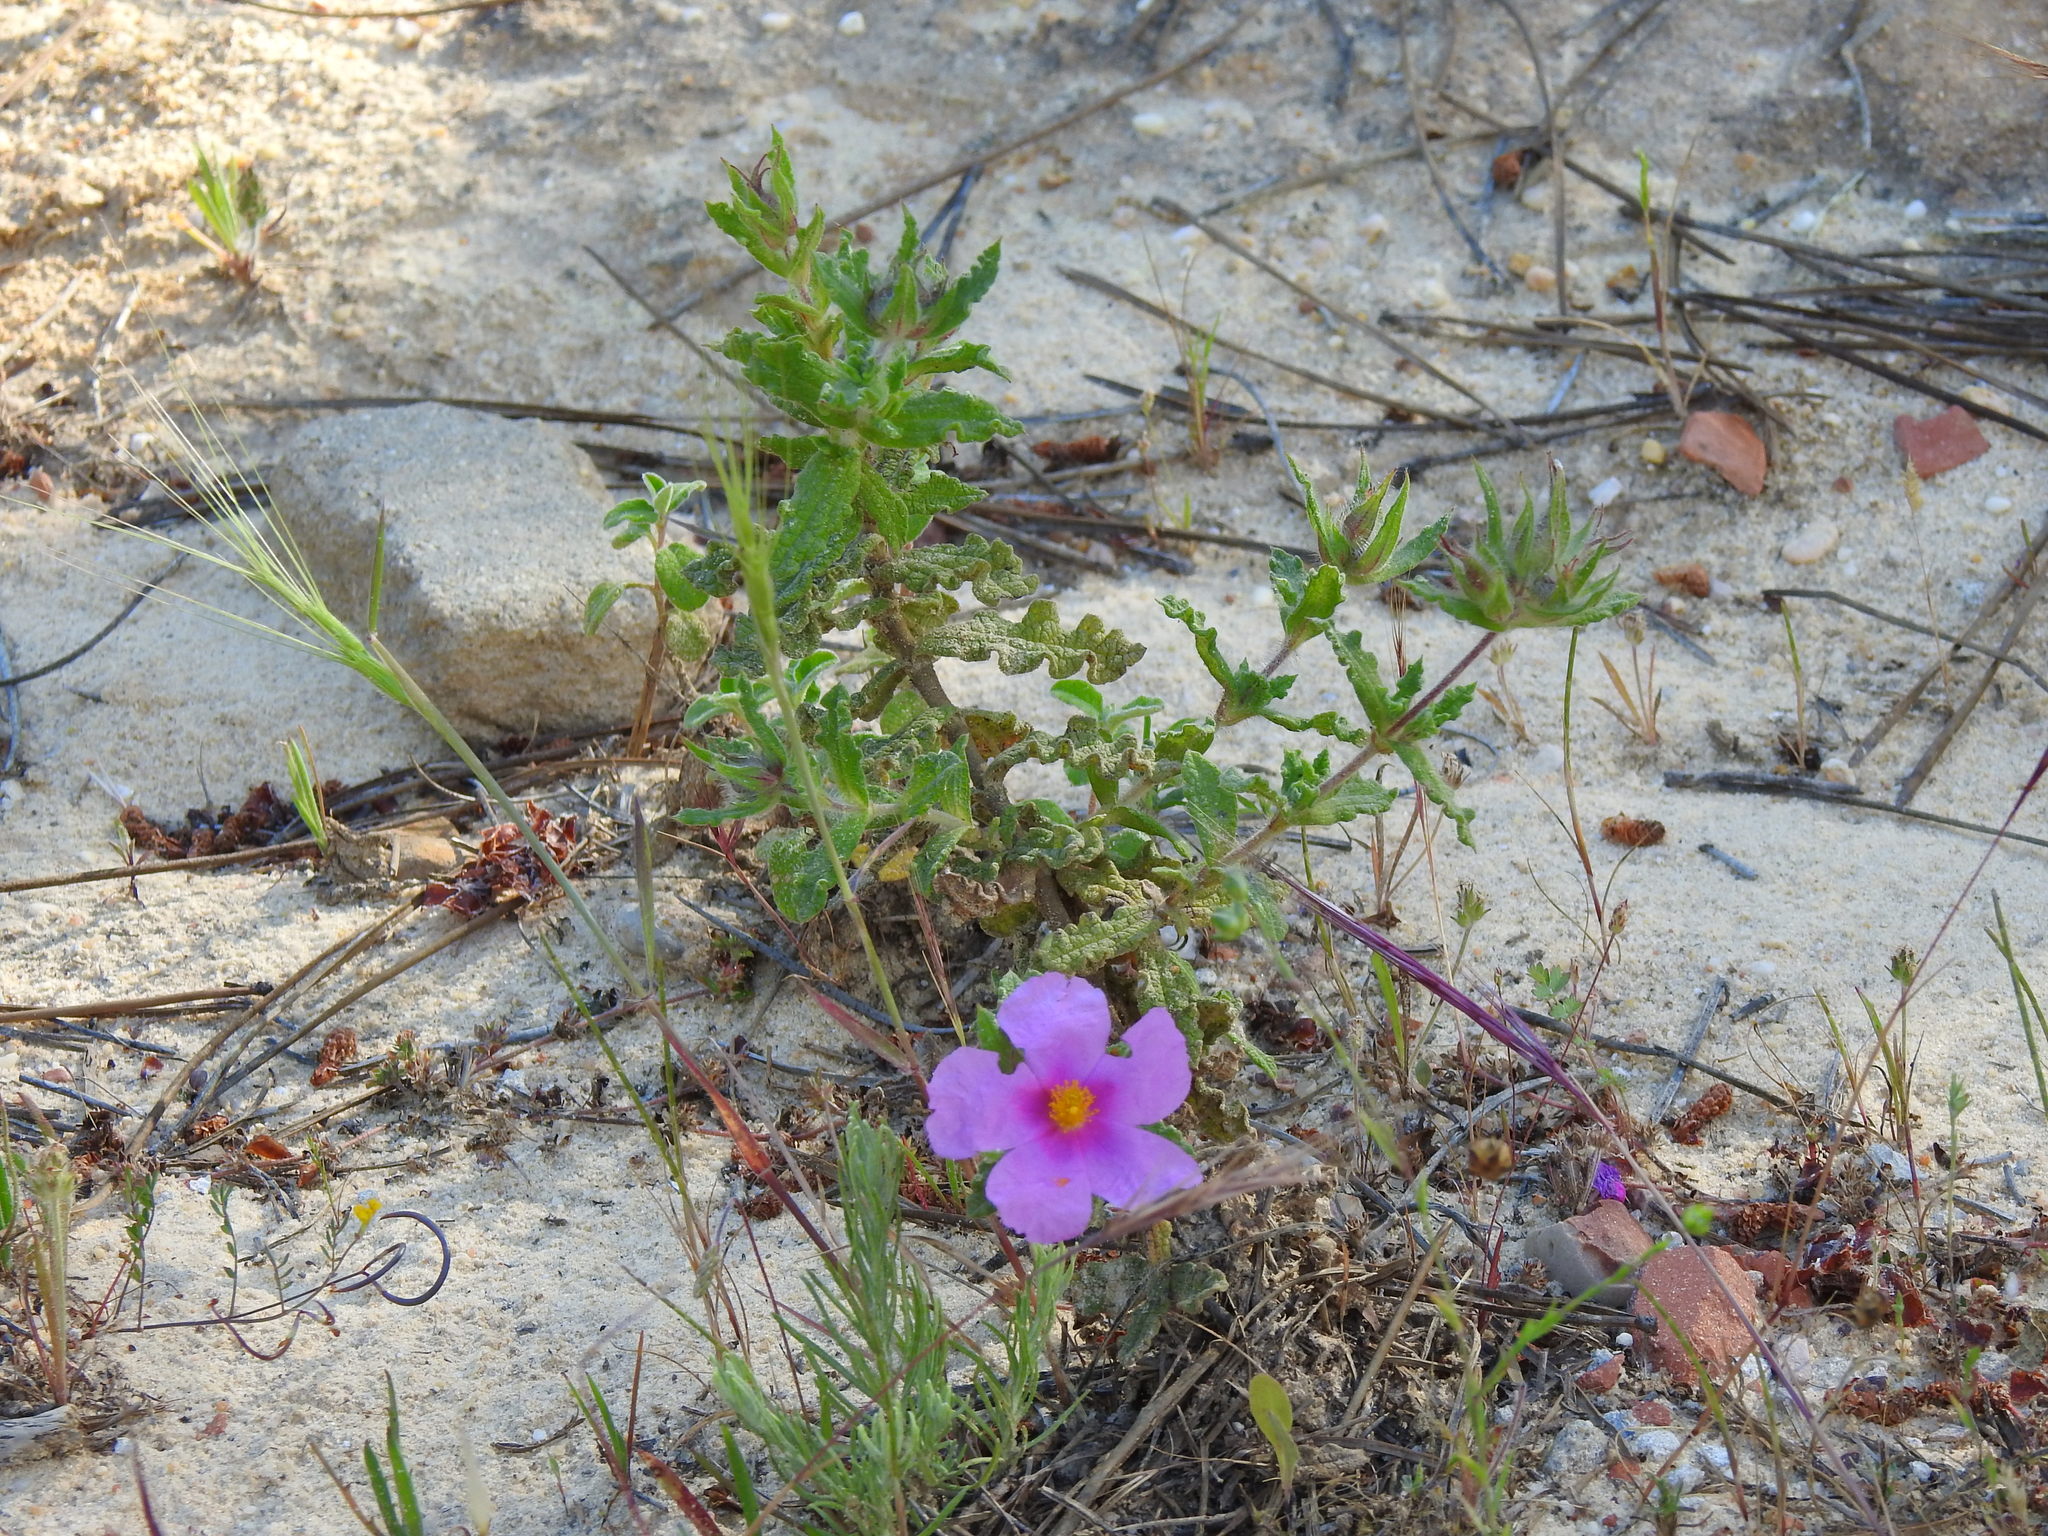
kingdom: Plantae
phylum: Tracheophyta
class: Magnoliopsida
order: Malvales
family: Cistaceae
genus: Cistus
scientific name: Cistus crispus
